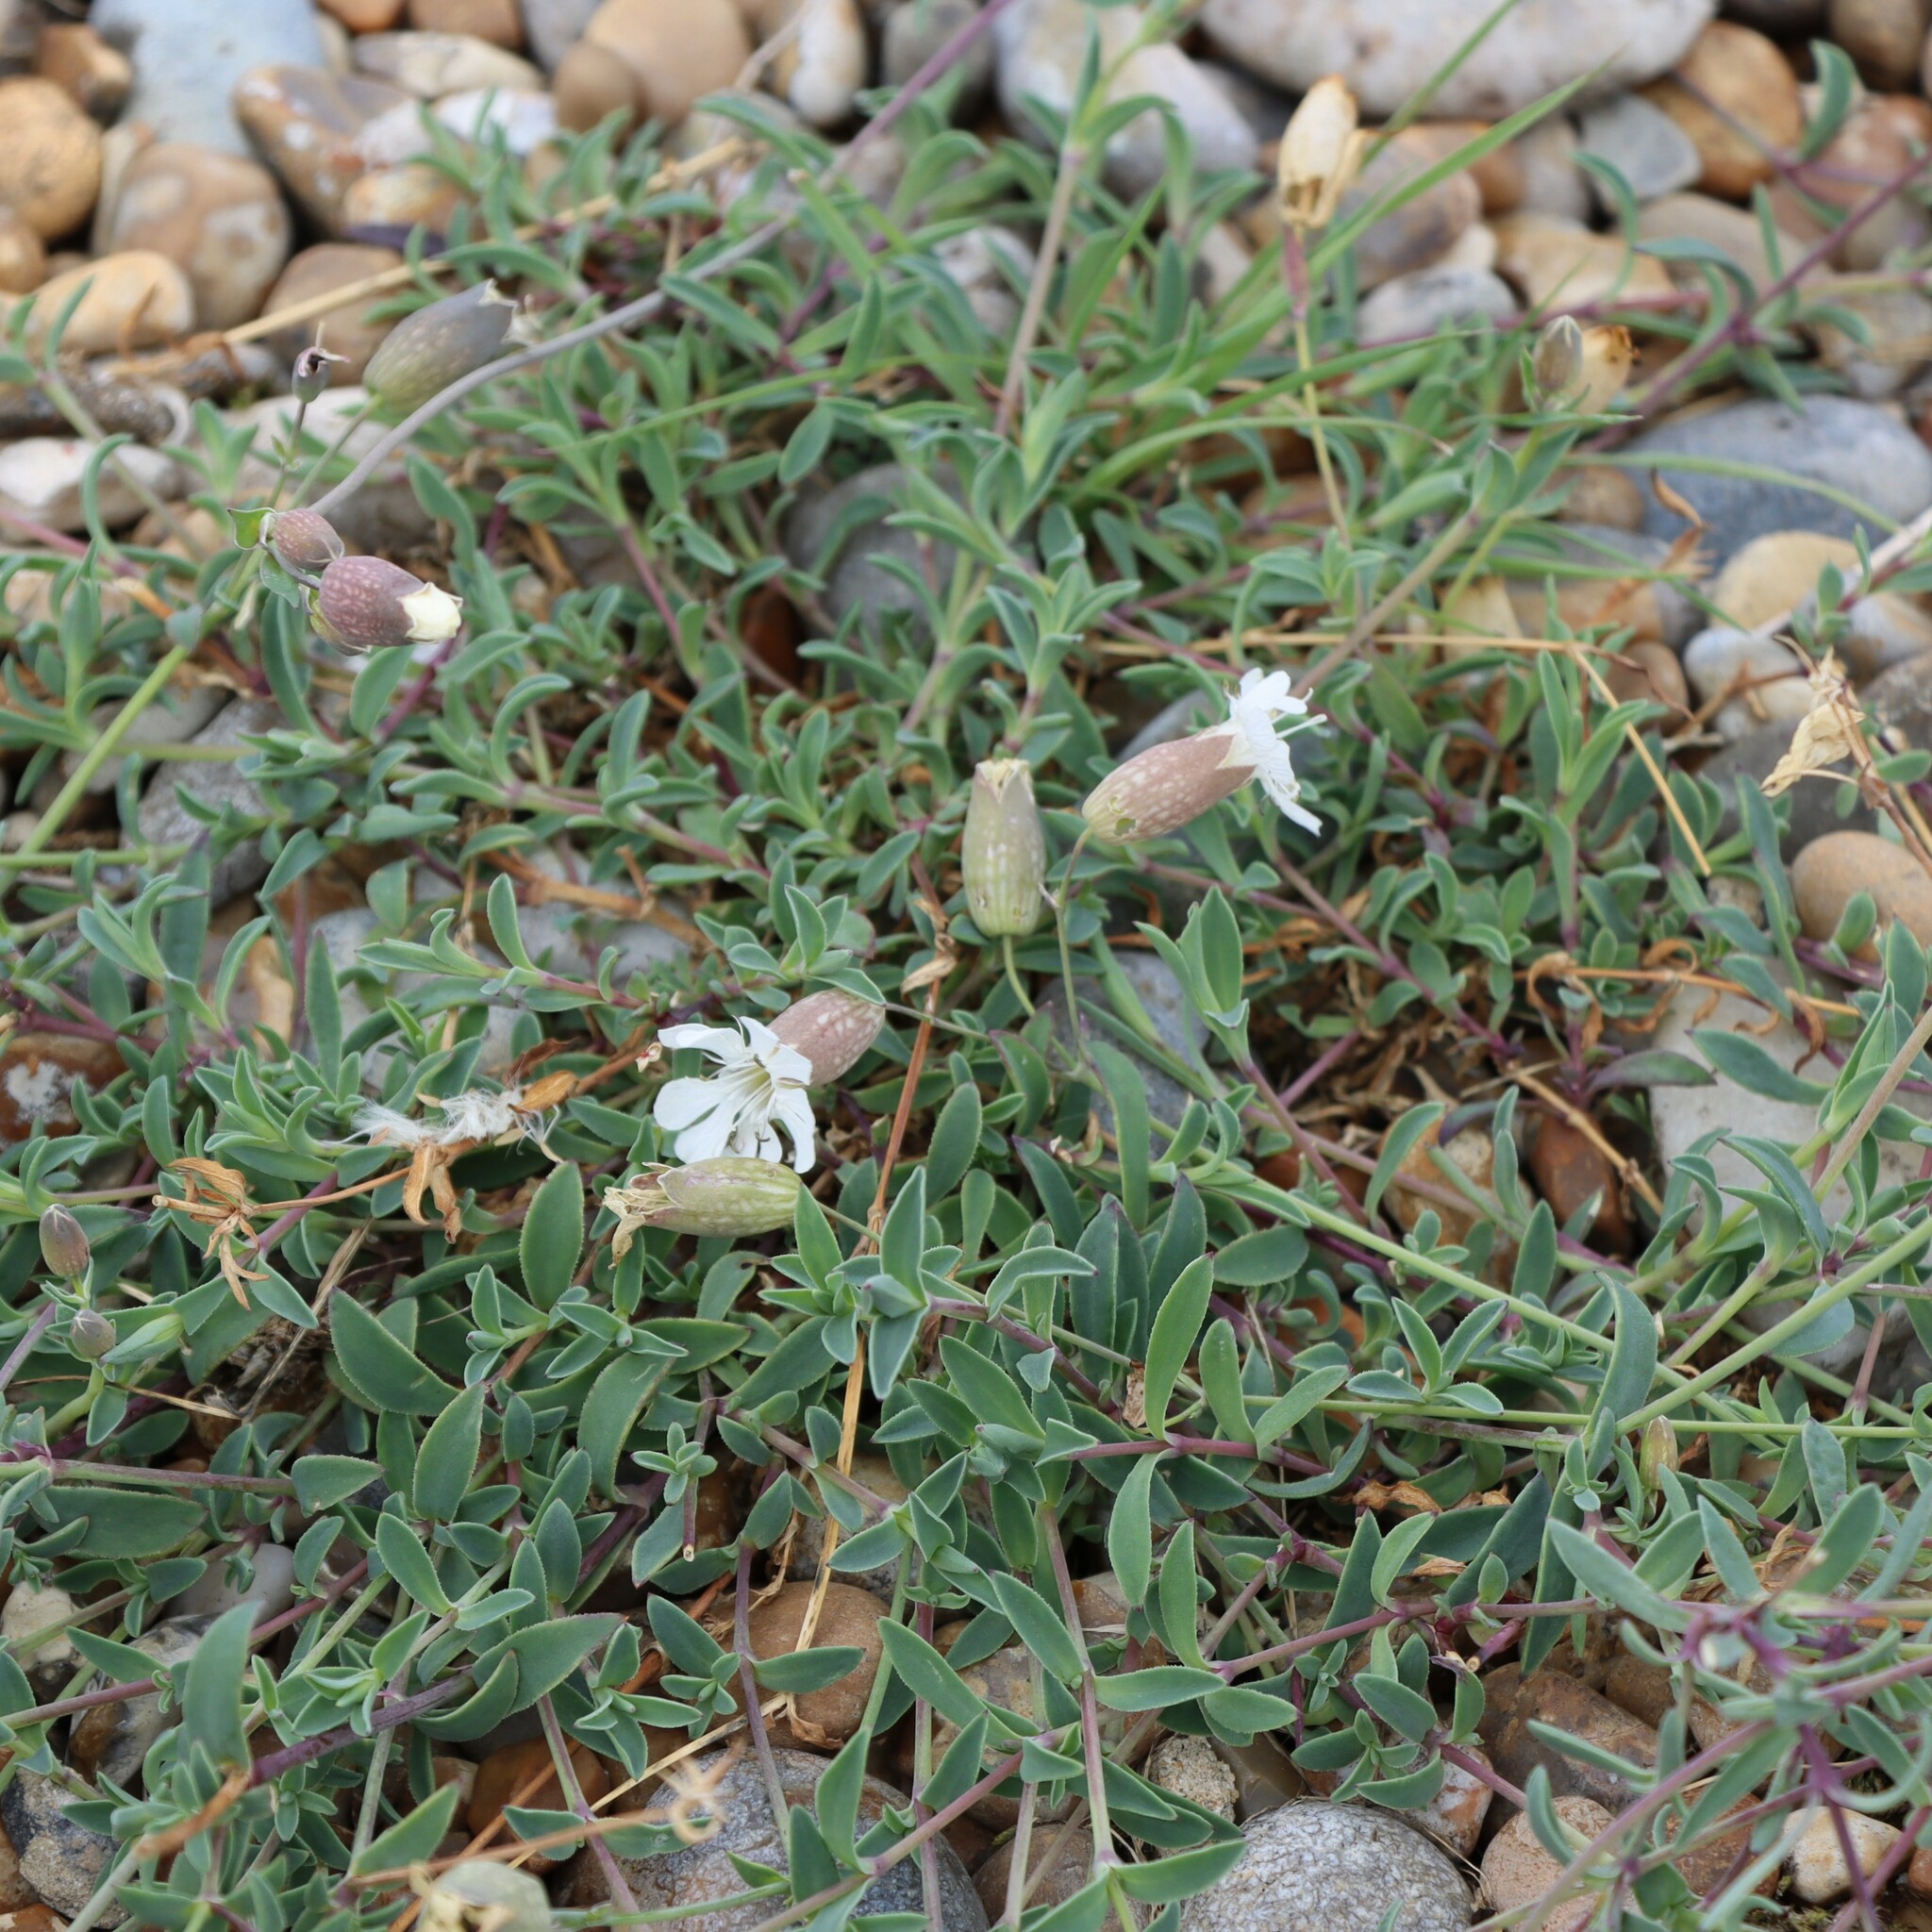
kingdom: Plantae
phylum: Tracheophyta
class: Magnoliopsida
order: Caryophyllales
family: Caryophyllaceae
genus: Silene
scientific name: Silene uniflora
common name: Sea campion
